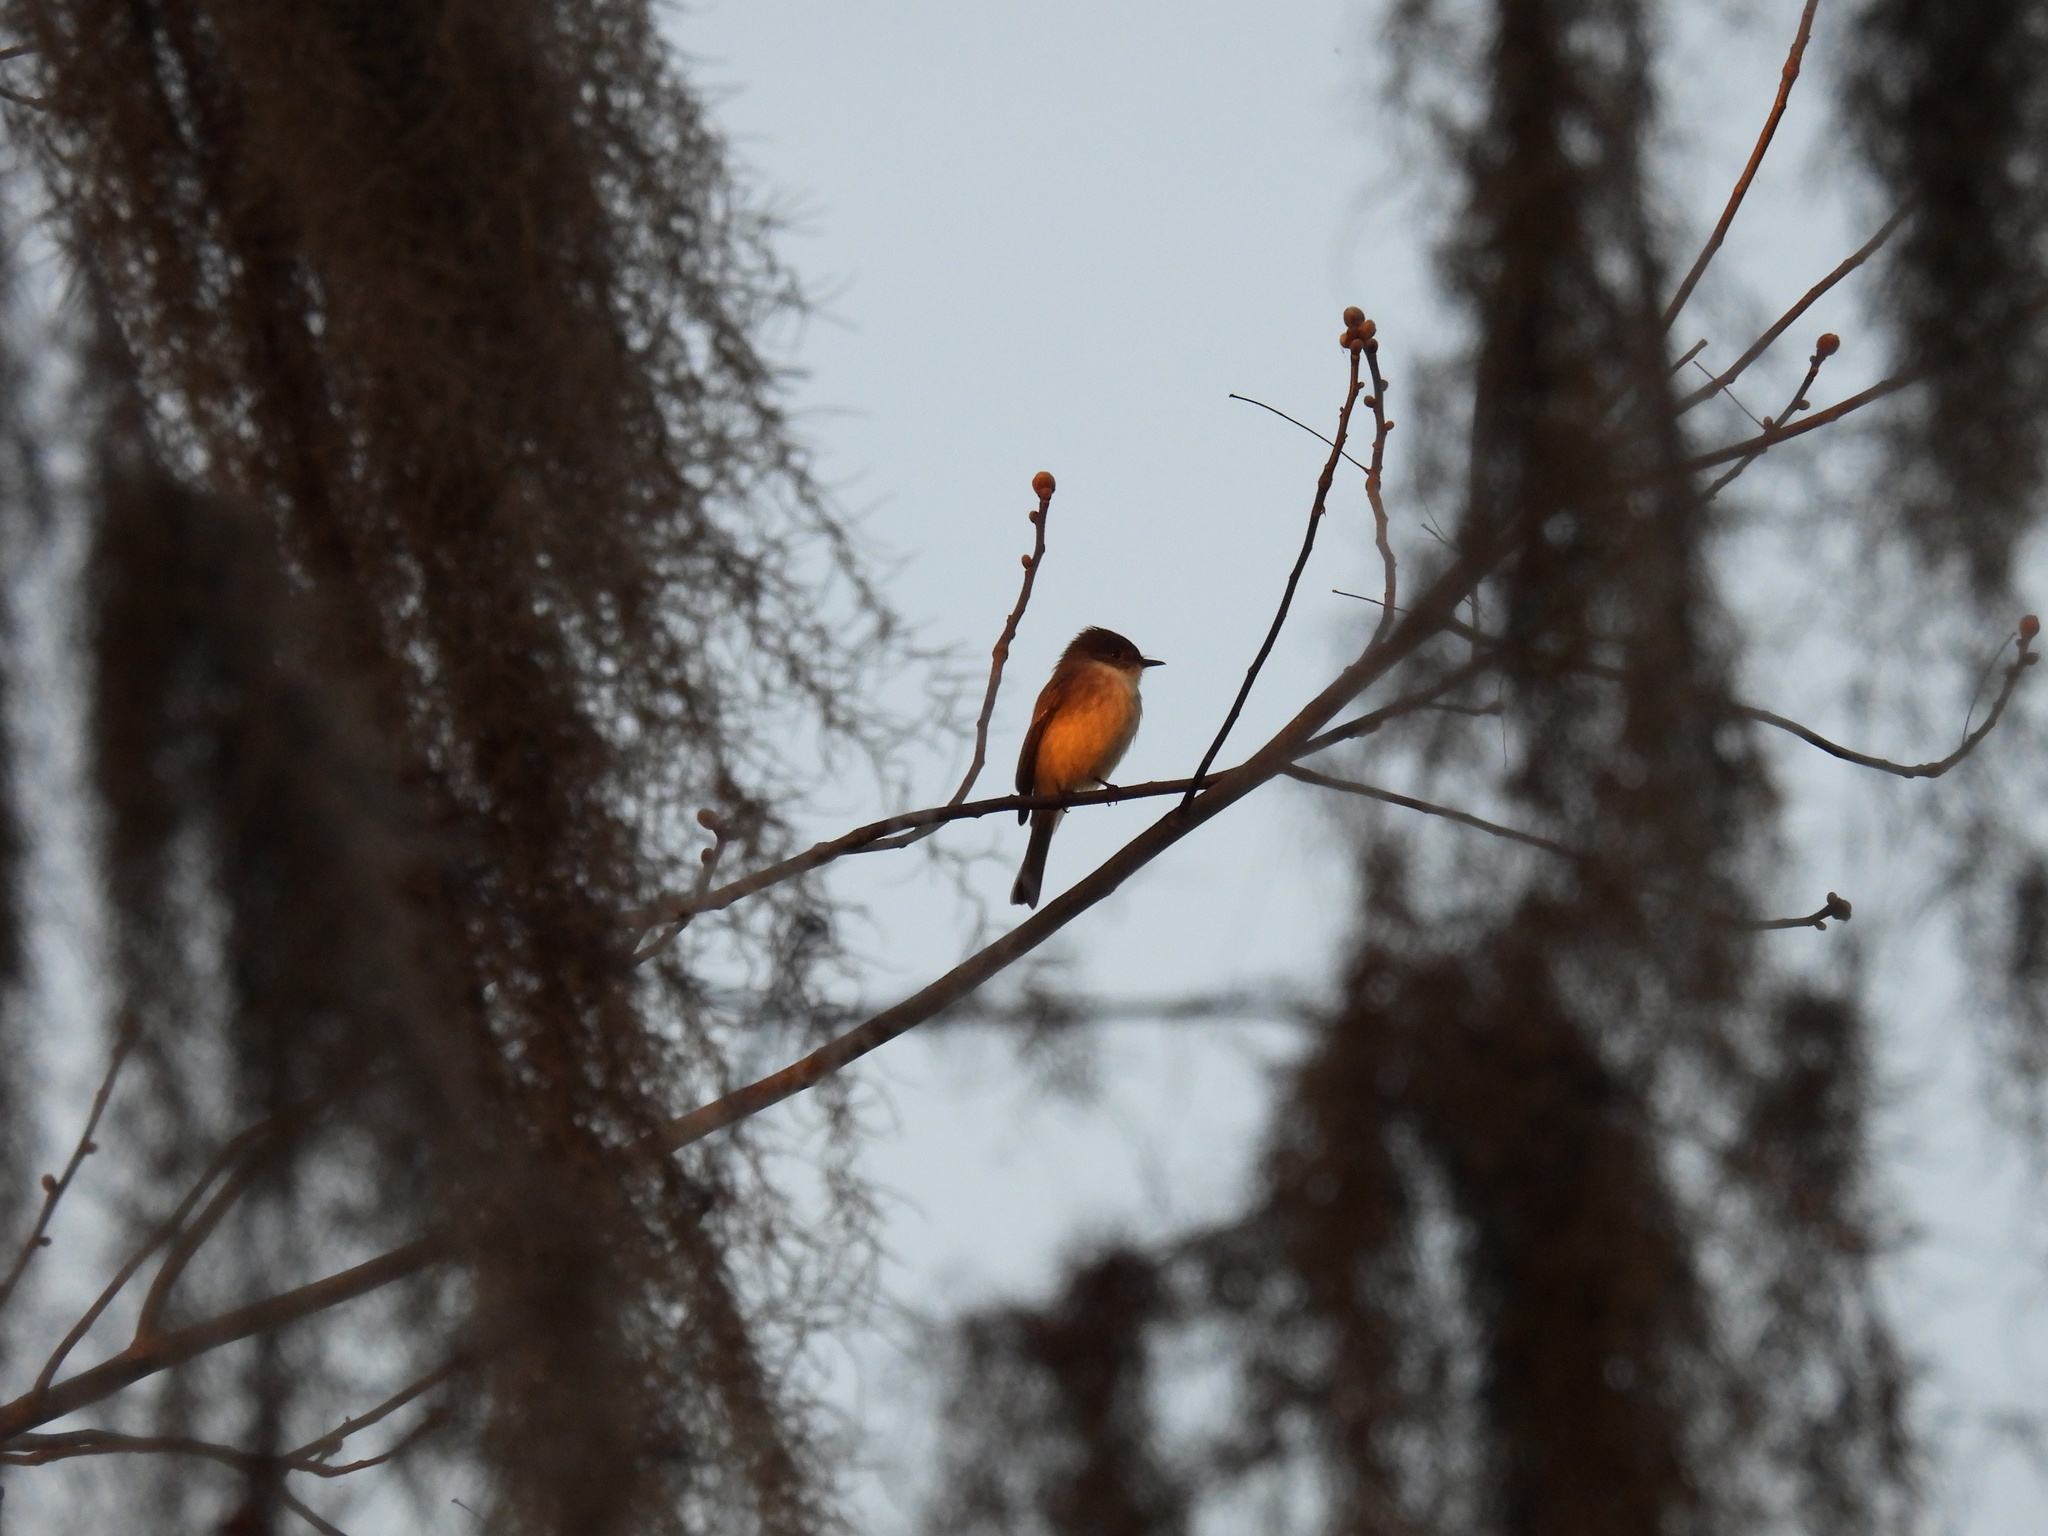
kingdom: Animalia
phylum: Chordata
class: Aves
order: Passeriformes
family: Tyrannidae
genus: Sayornis
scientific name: Sayornis phoebe
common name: Eastern phoebe
